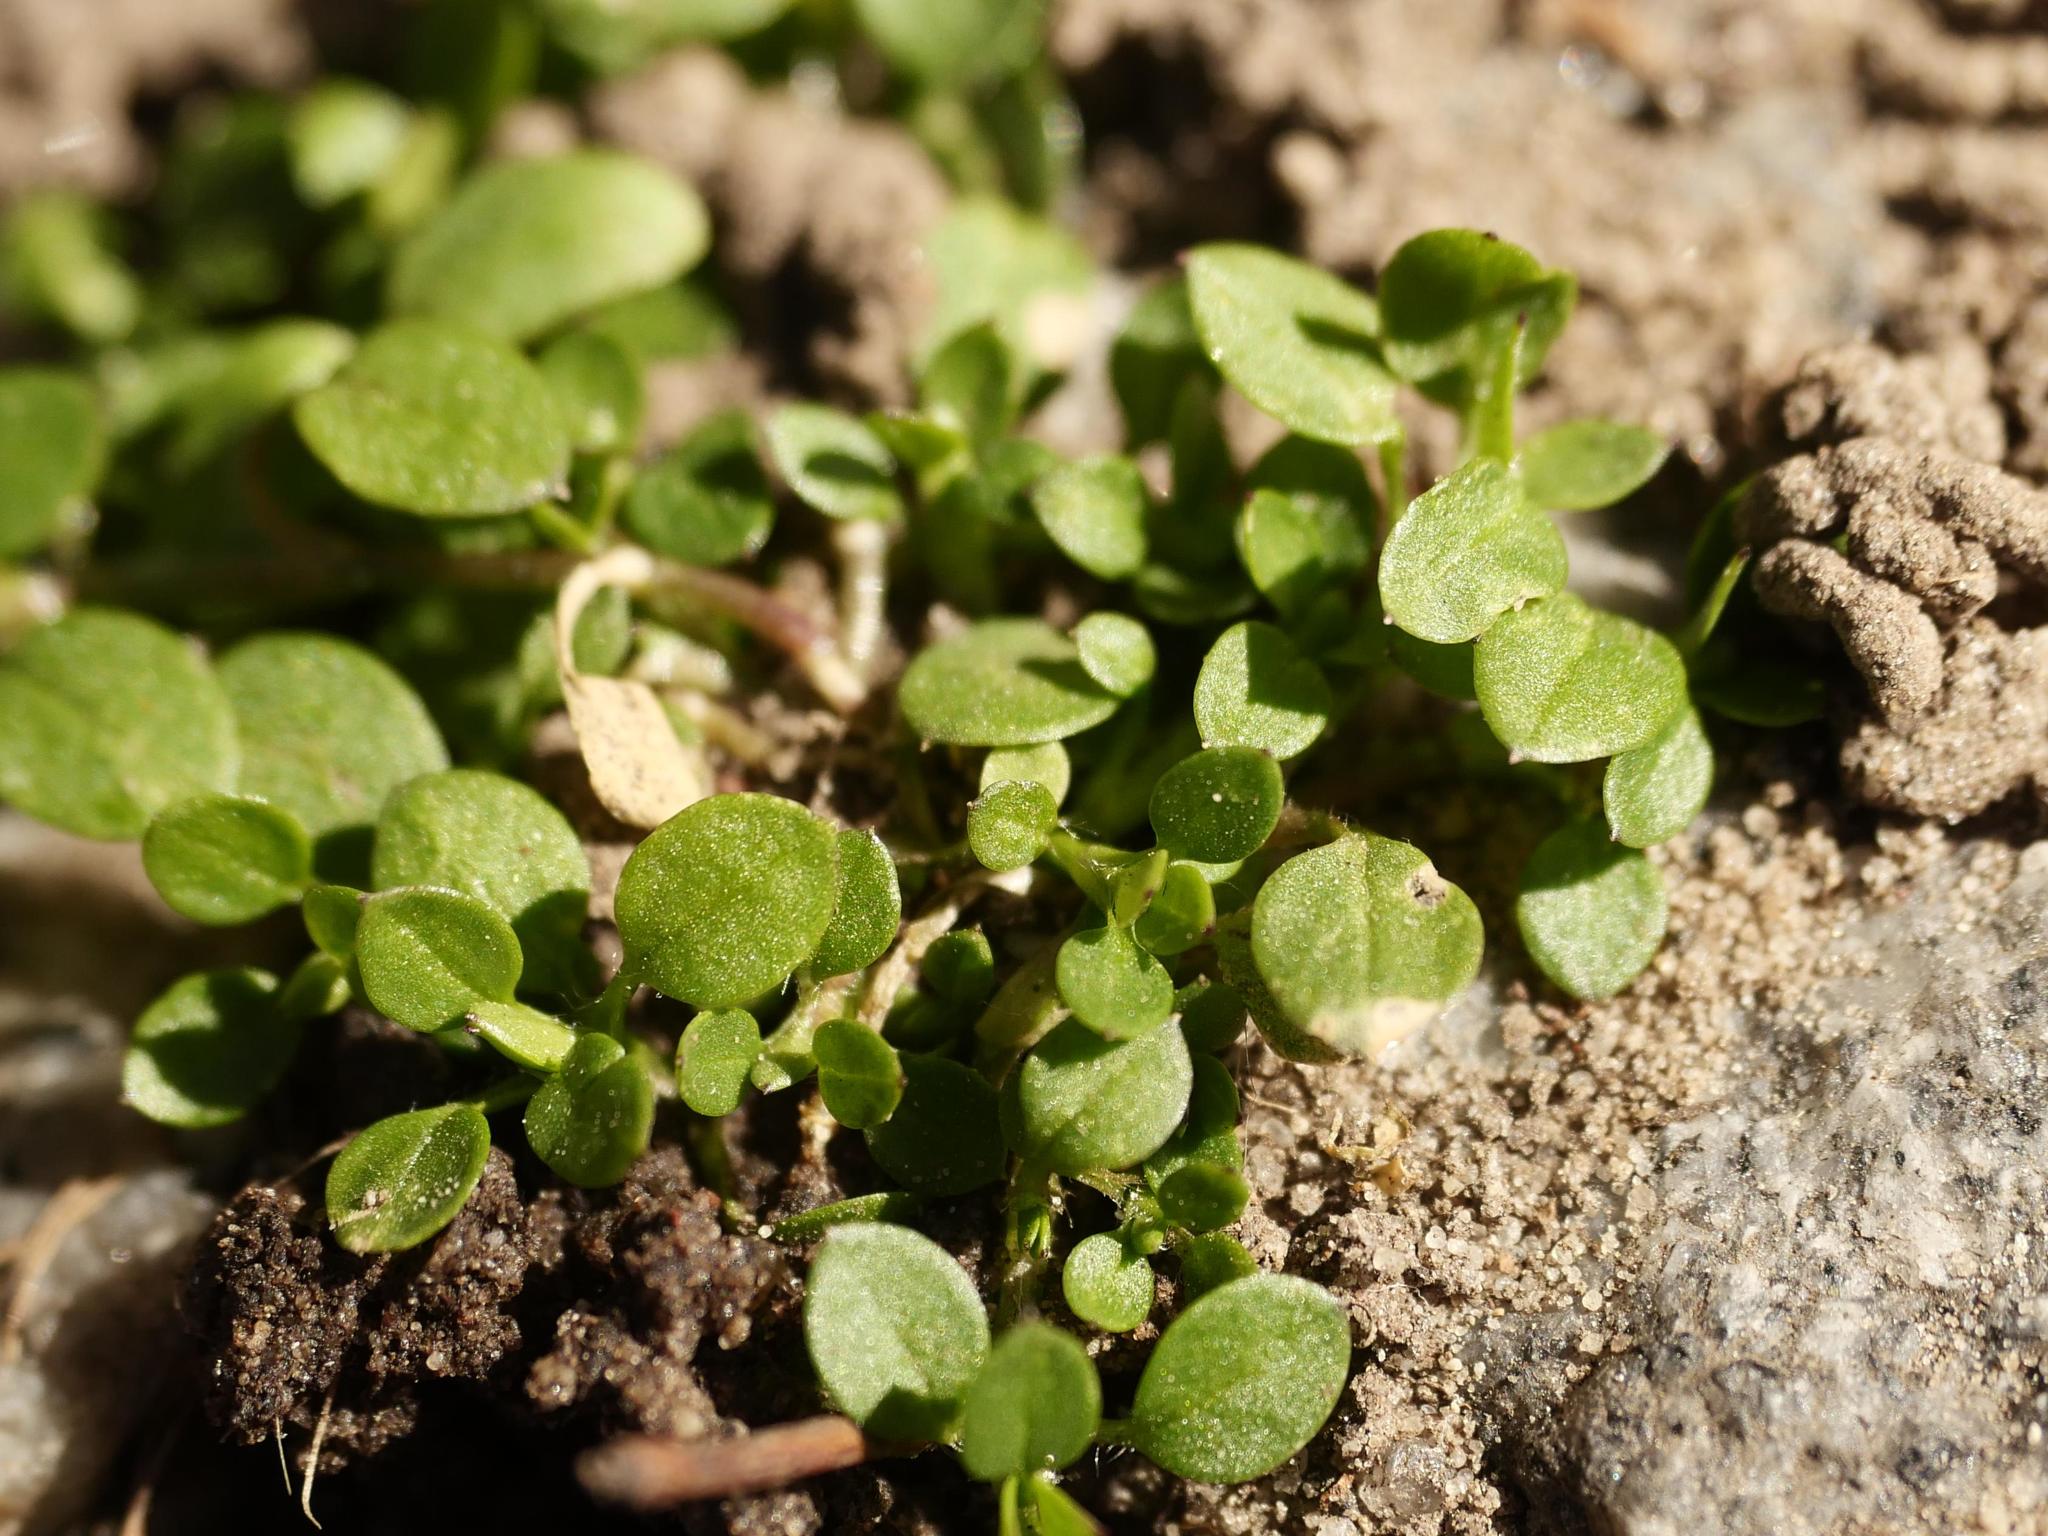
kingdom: Plantae
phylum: Tracheophyta
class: Magnoliopsida
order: Caryophyllales
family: Caryophyllaceae
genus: Stellaria
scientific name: Stellaria media
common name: Common chickweed
